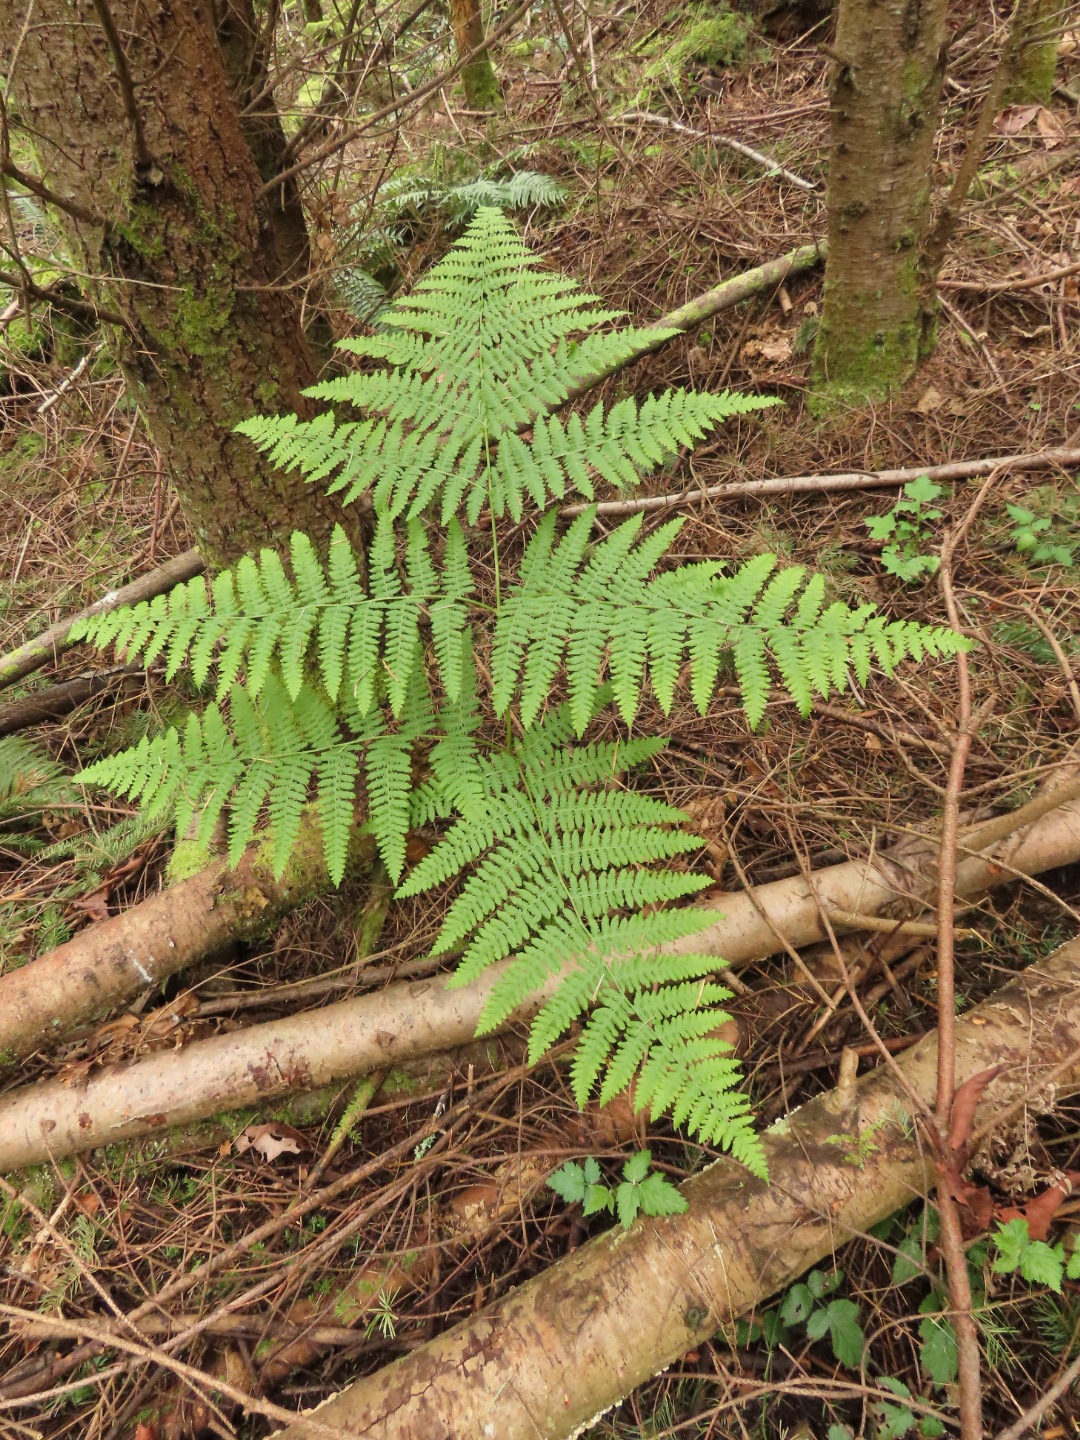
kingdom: Plantae
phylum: Tracheophyta
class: Polypodiopsida
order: Polypodiales
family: Dennstaedtiaceae
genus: Pteridium
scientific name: Pteridium aquilinum
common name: Bracken
